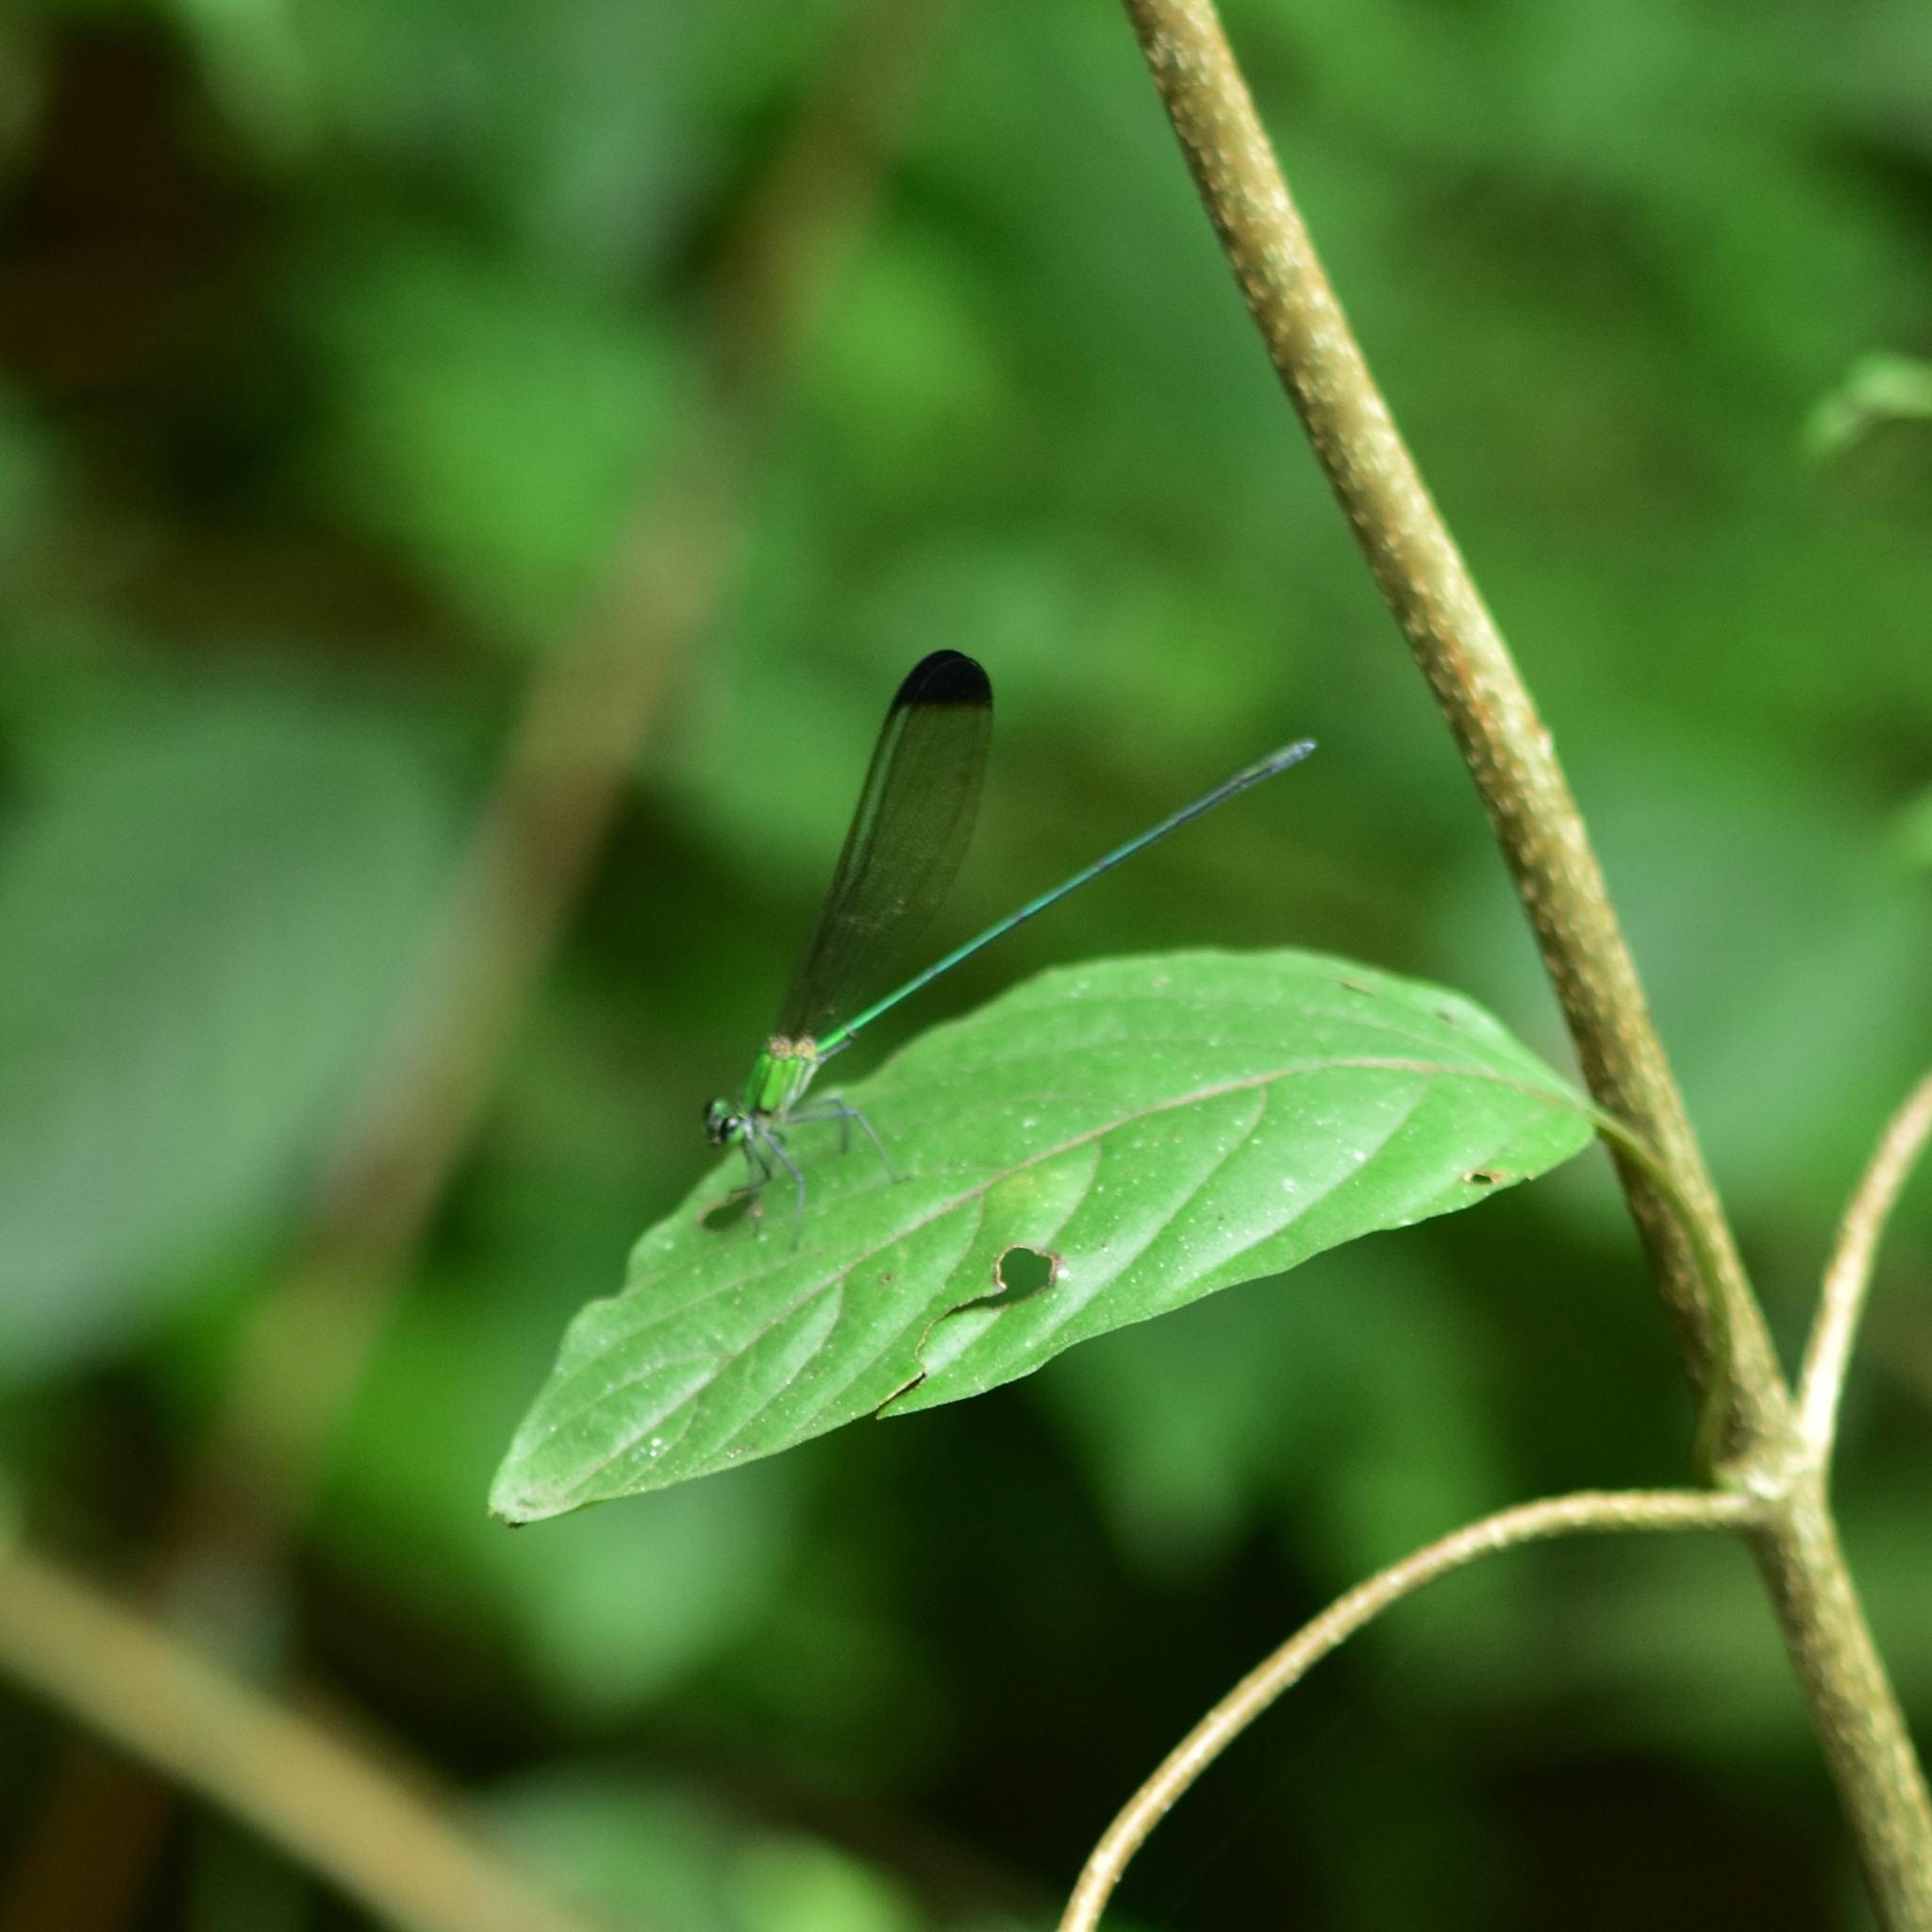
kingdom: Animalia
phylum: Arthropoda
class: Insecta
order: Odonata
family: Calopterygidae
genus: Vestalis
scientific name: Vestalis apicalis
